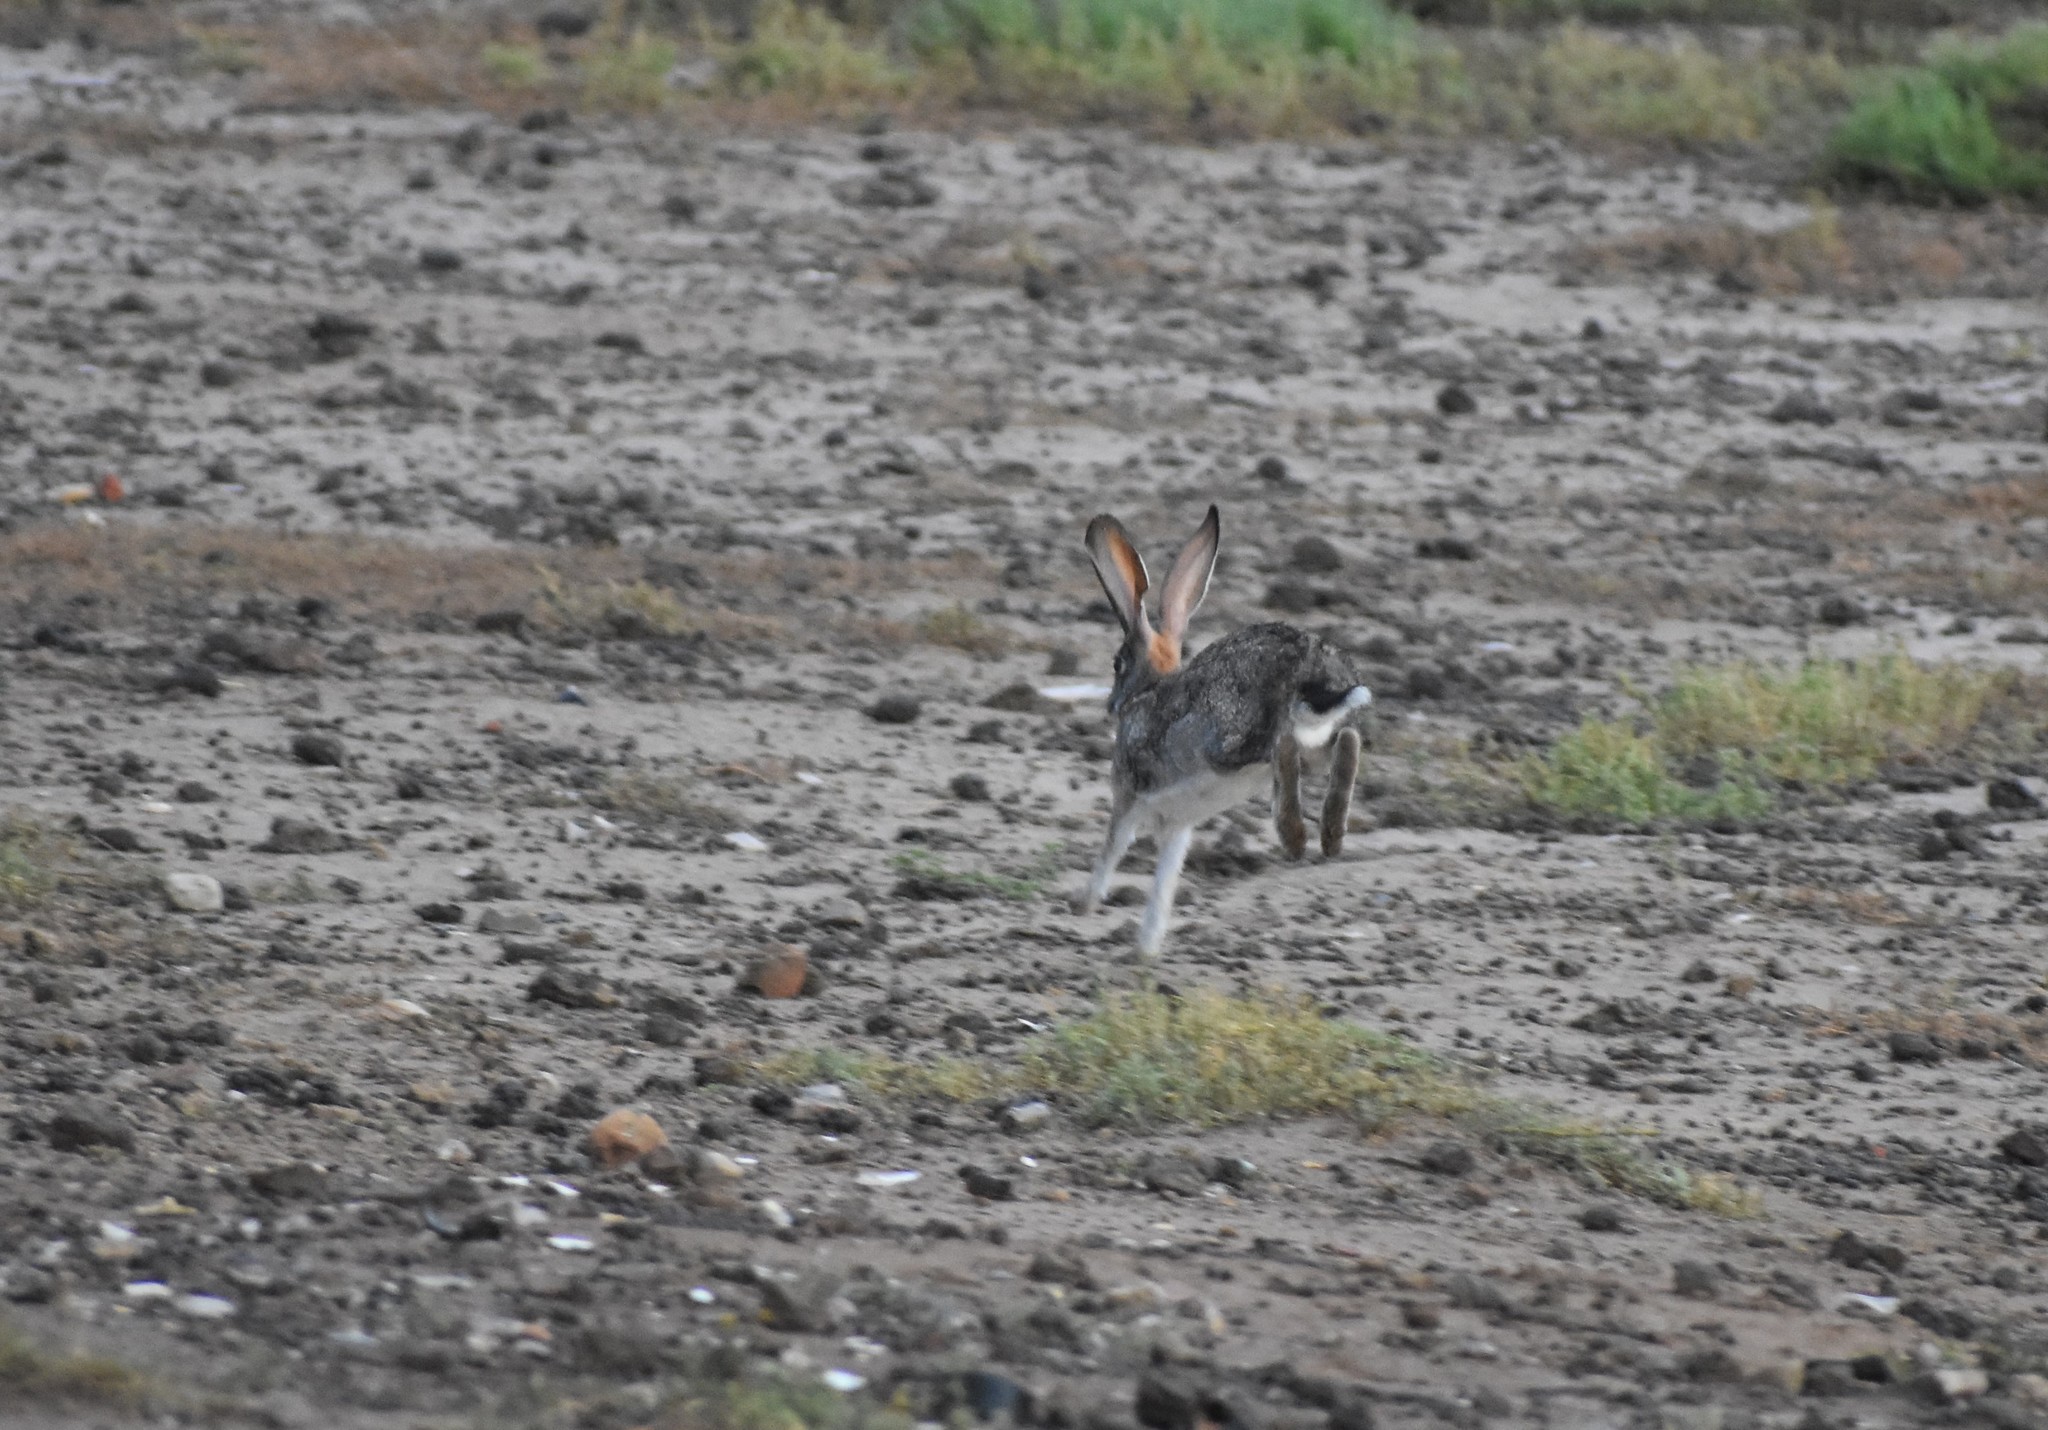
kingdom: Animalia
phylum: Chordata
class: Mammalia
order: Lagomorpha
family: Leporidae
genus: Lepus
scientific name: Lepus saxatilis
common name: Scrub hare
